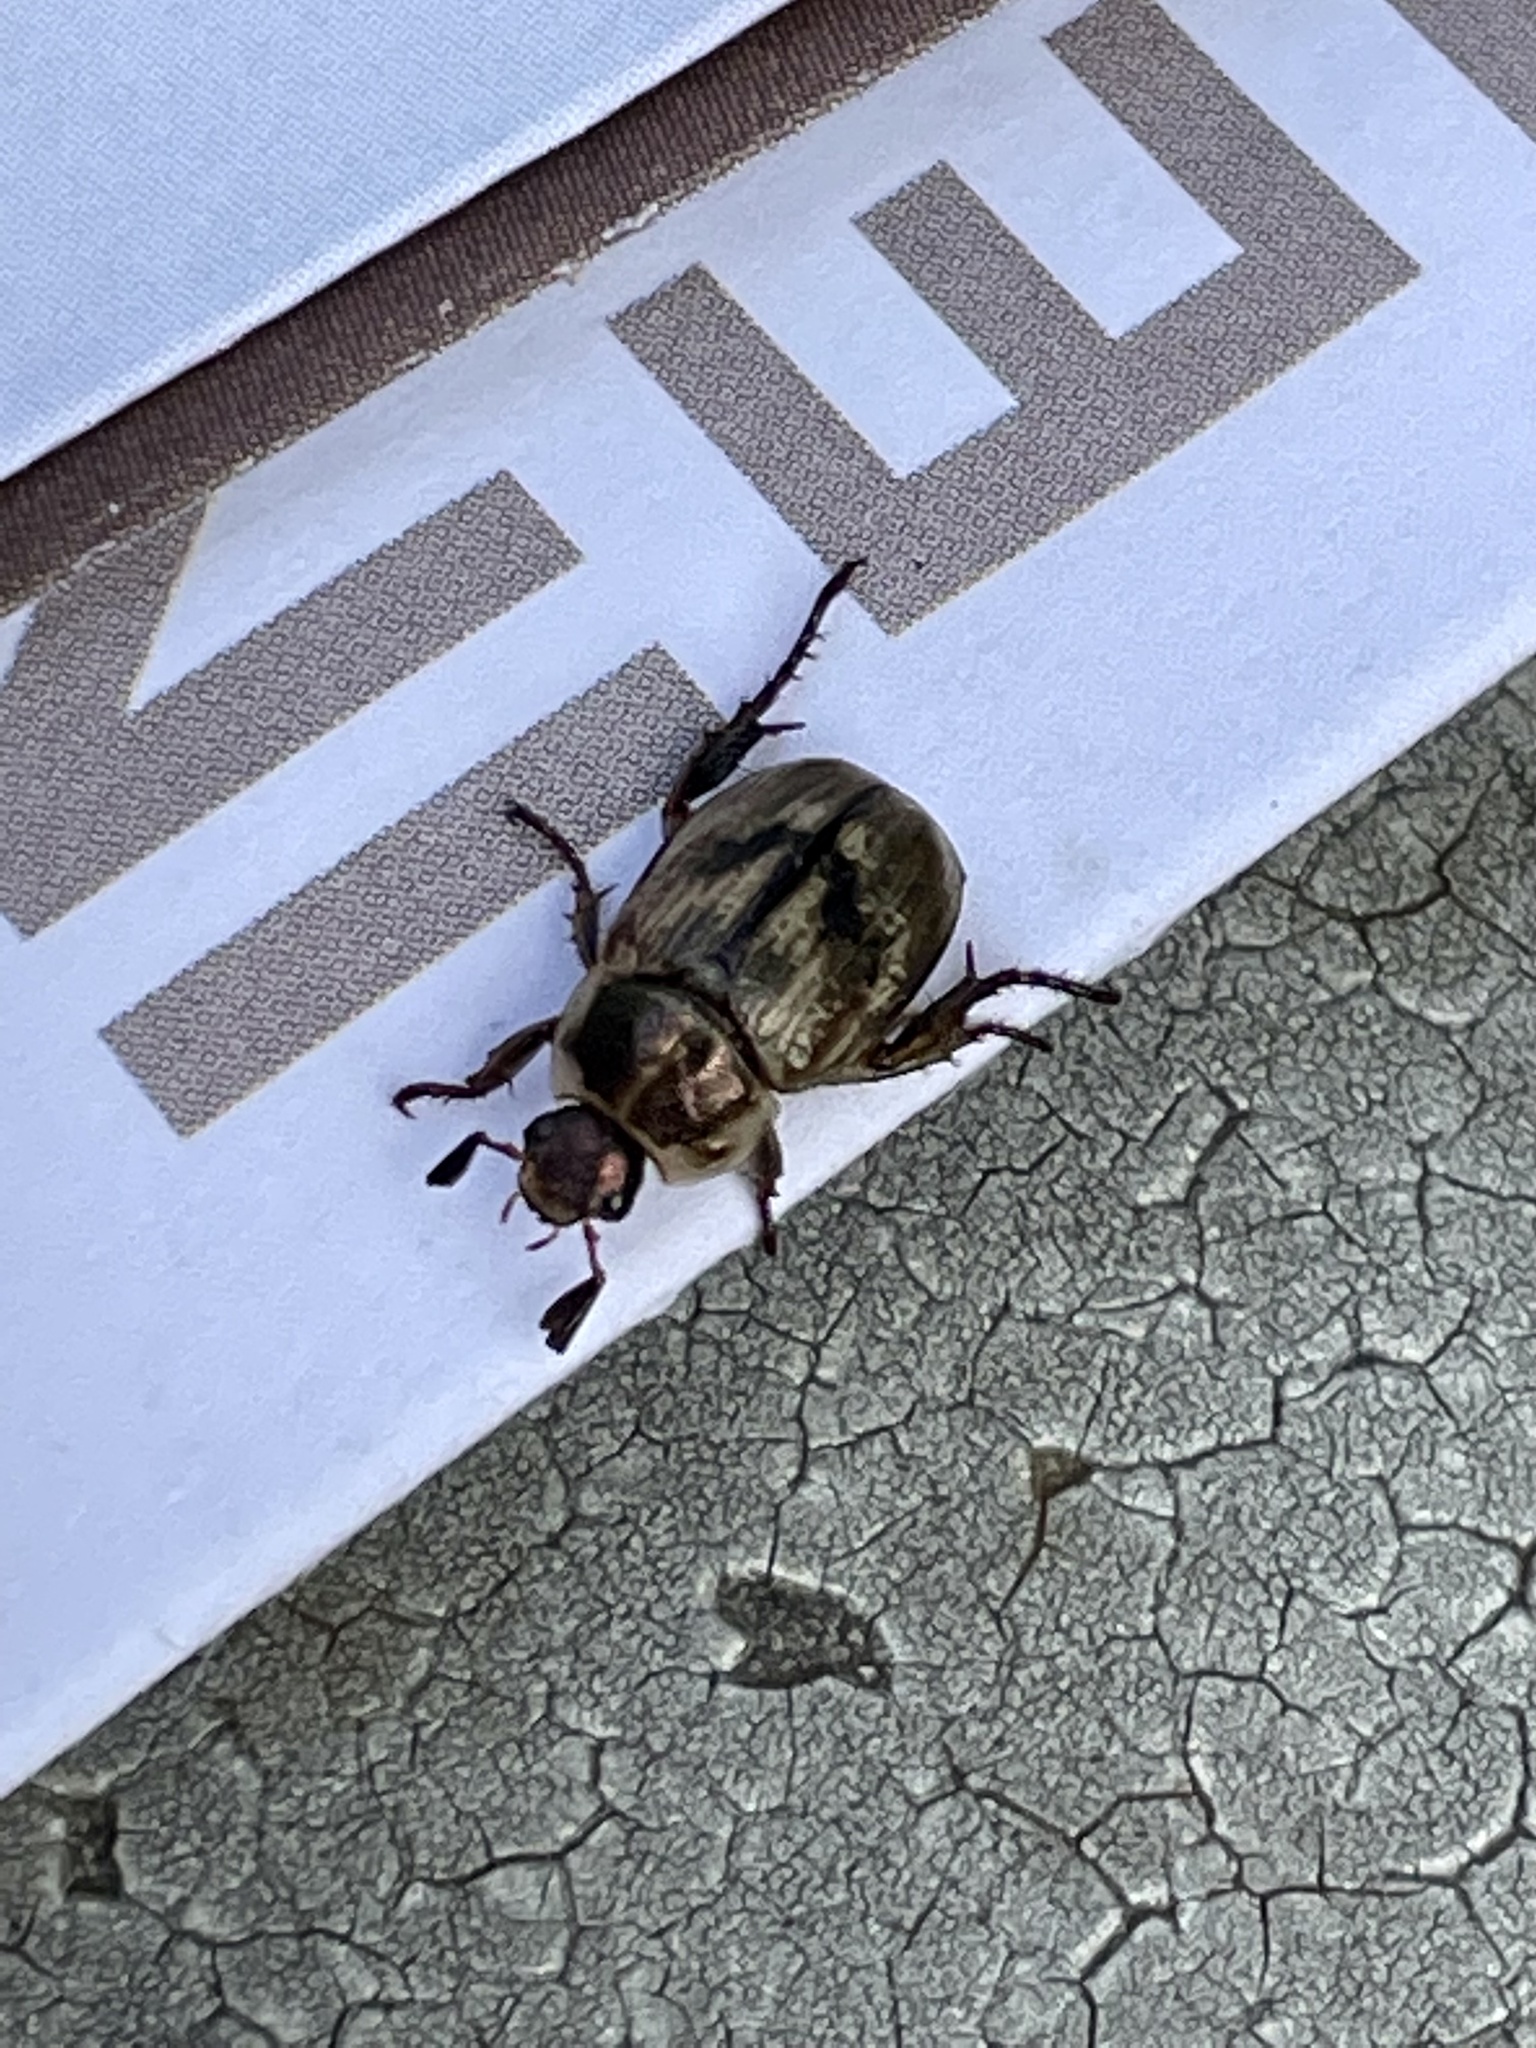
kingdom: Animalia
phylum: Arthropoda
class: Insecta
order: Coleoptera
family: Scarabaeidae
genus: Exomala
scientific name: Exomala orientalis
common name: Oriental beetle
